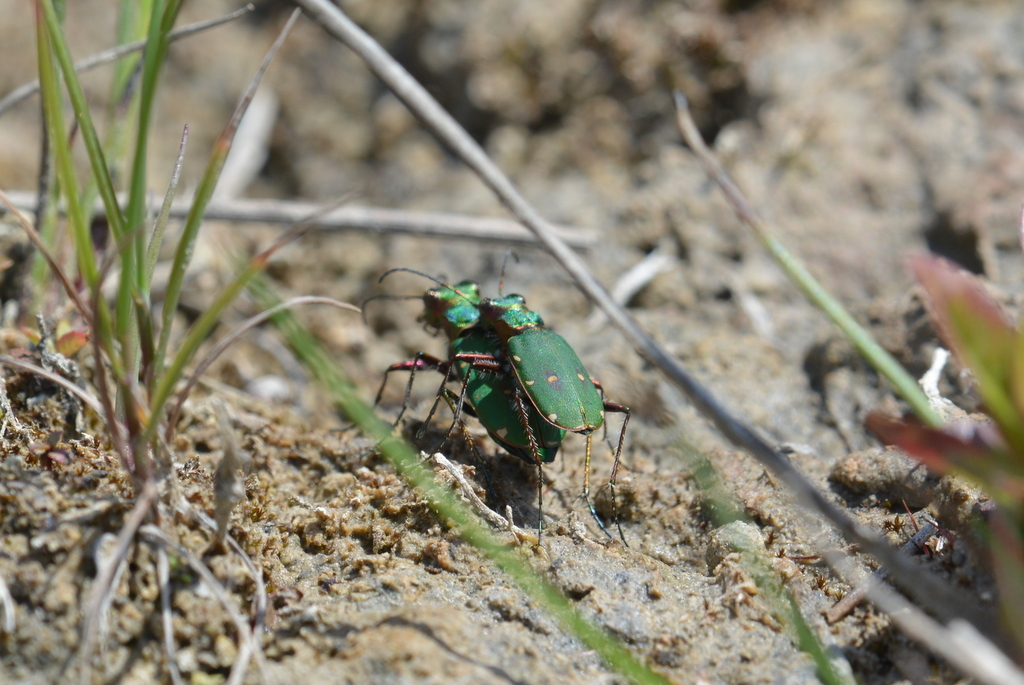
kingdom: Animalia
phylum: Arthropoda
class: Insecta
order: Coleoptera
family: Carabidae
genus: Cicindela
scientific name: Cicindela campestris
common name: Common tiger beetle
